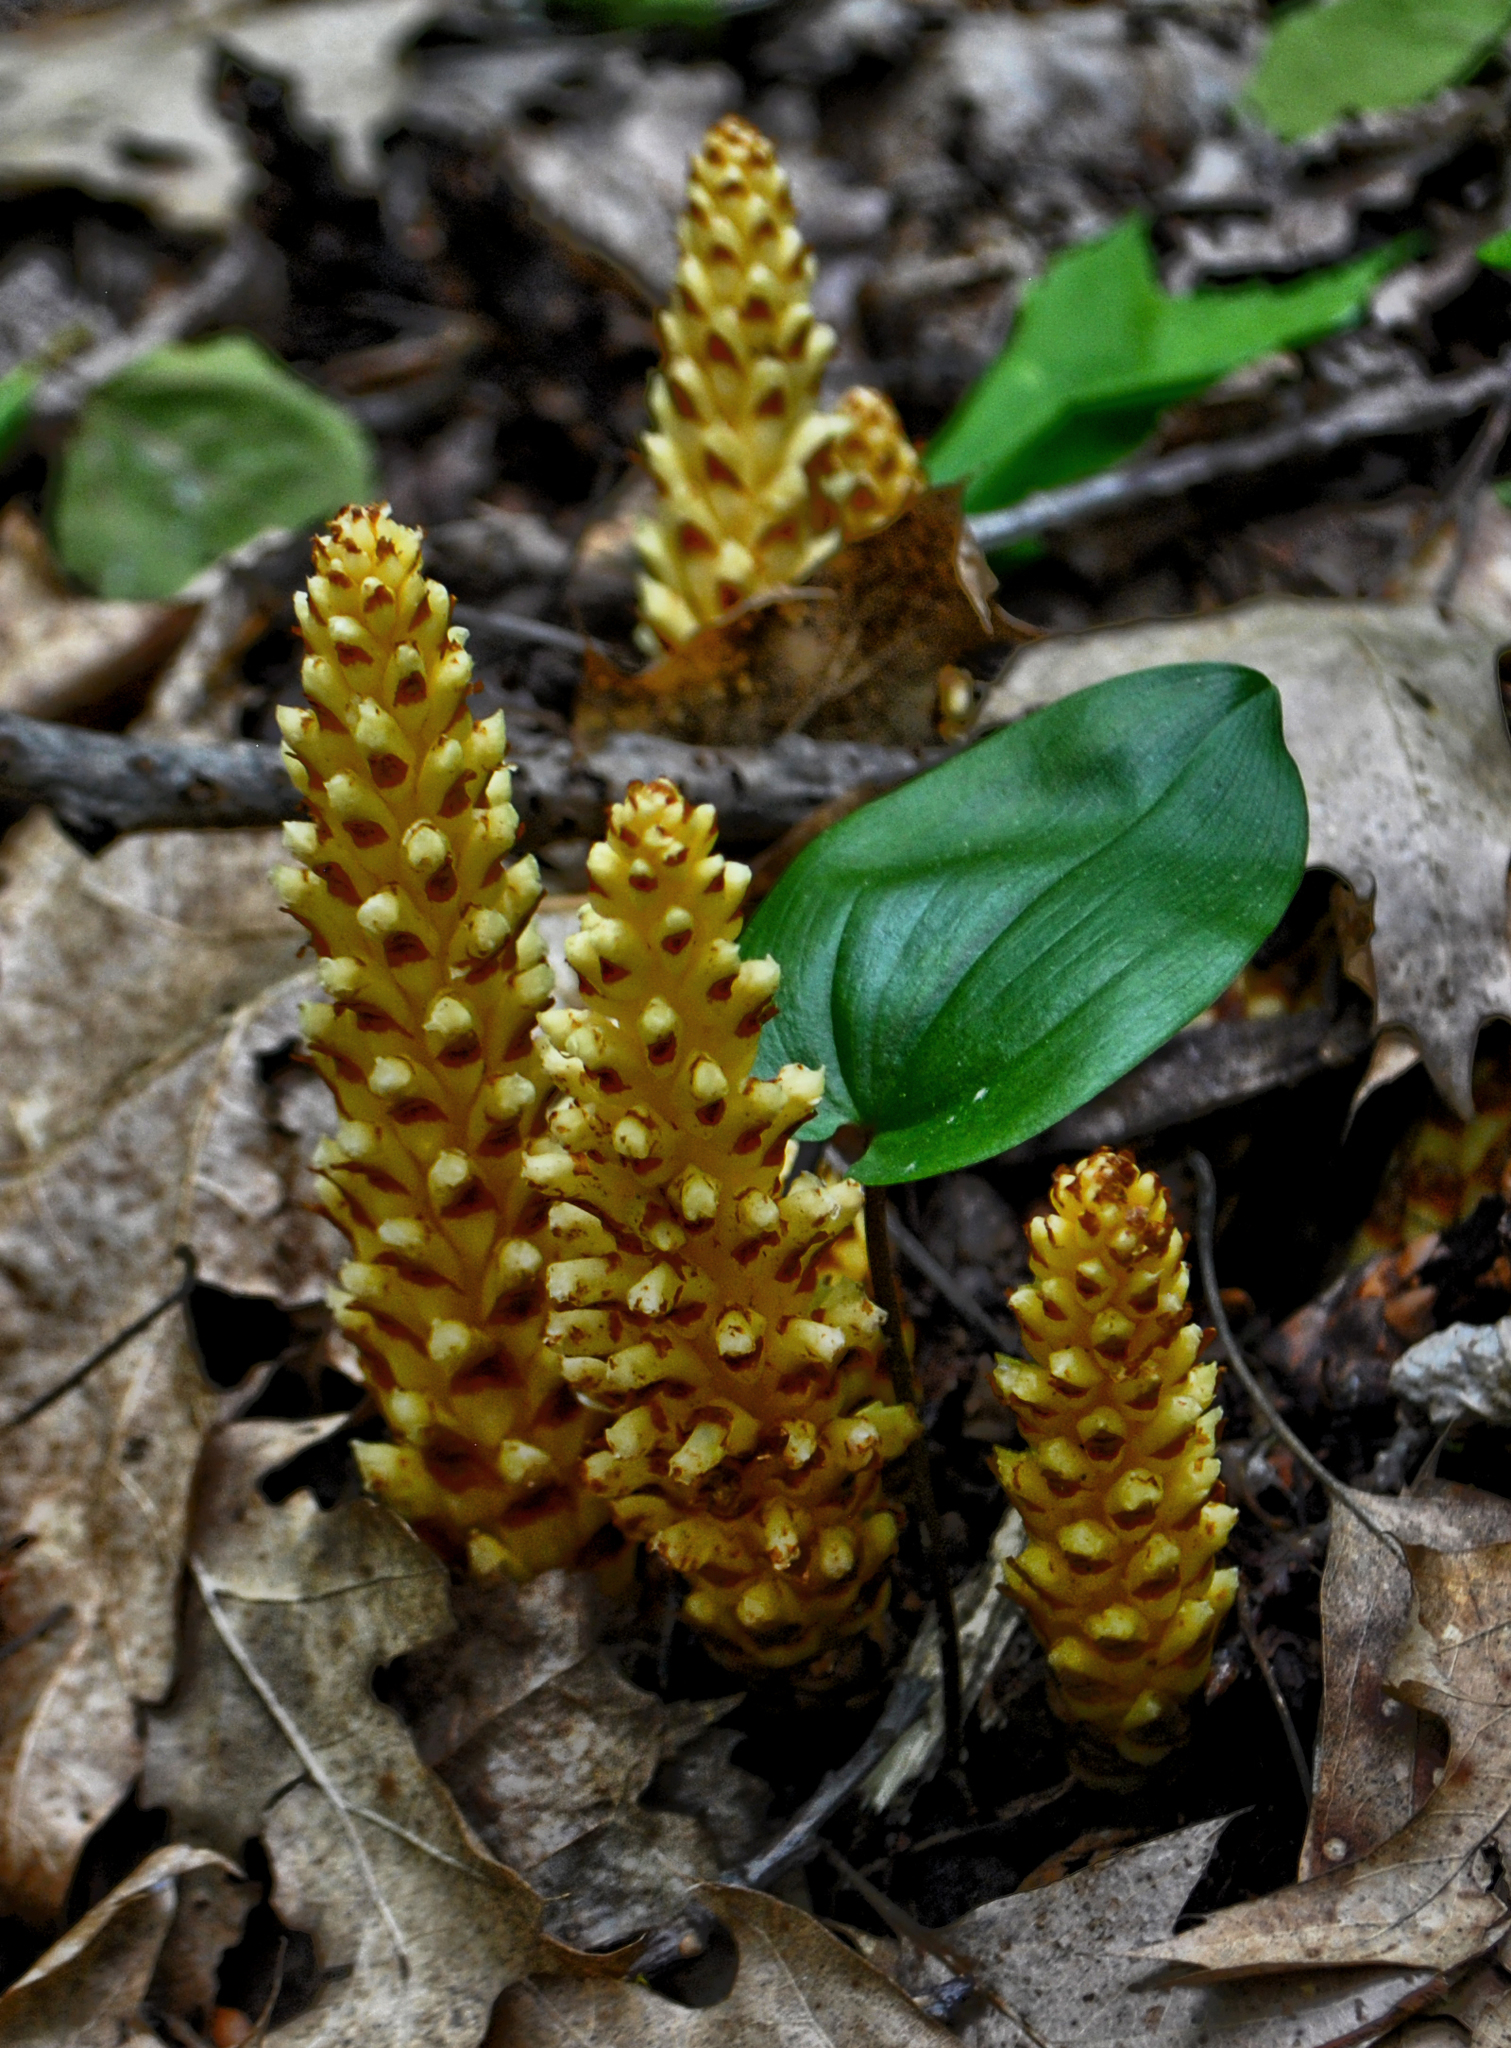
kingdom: Plantae
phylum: Tracheophyta
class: Magnoliopsida
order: Lamiales
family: Orobanchaceae
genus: Conopholis
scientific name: Conopholis americana
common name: American cancer-root
